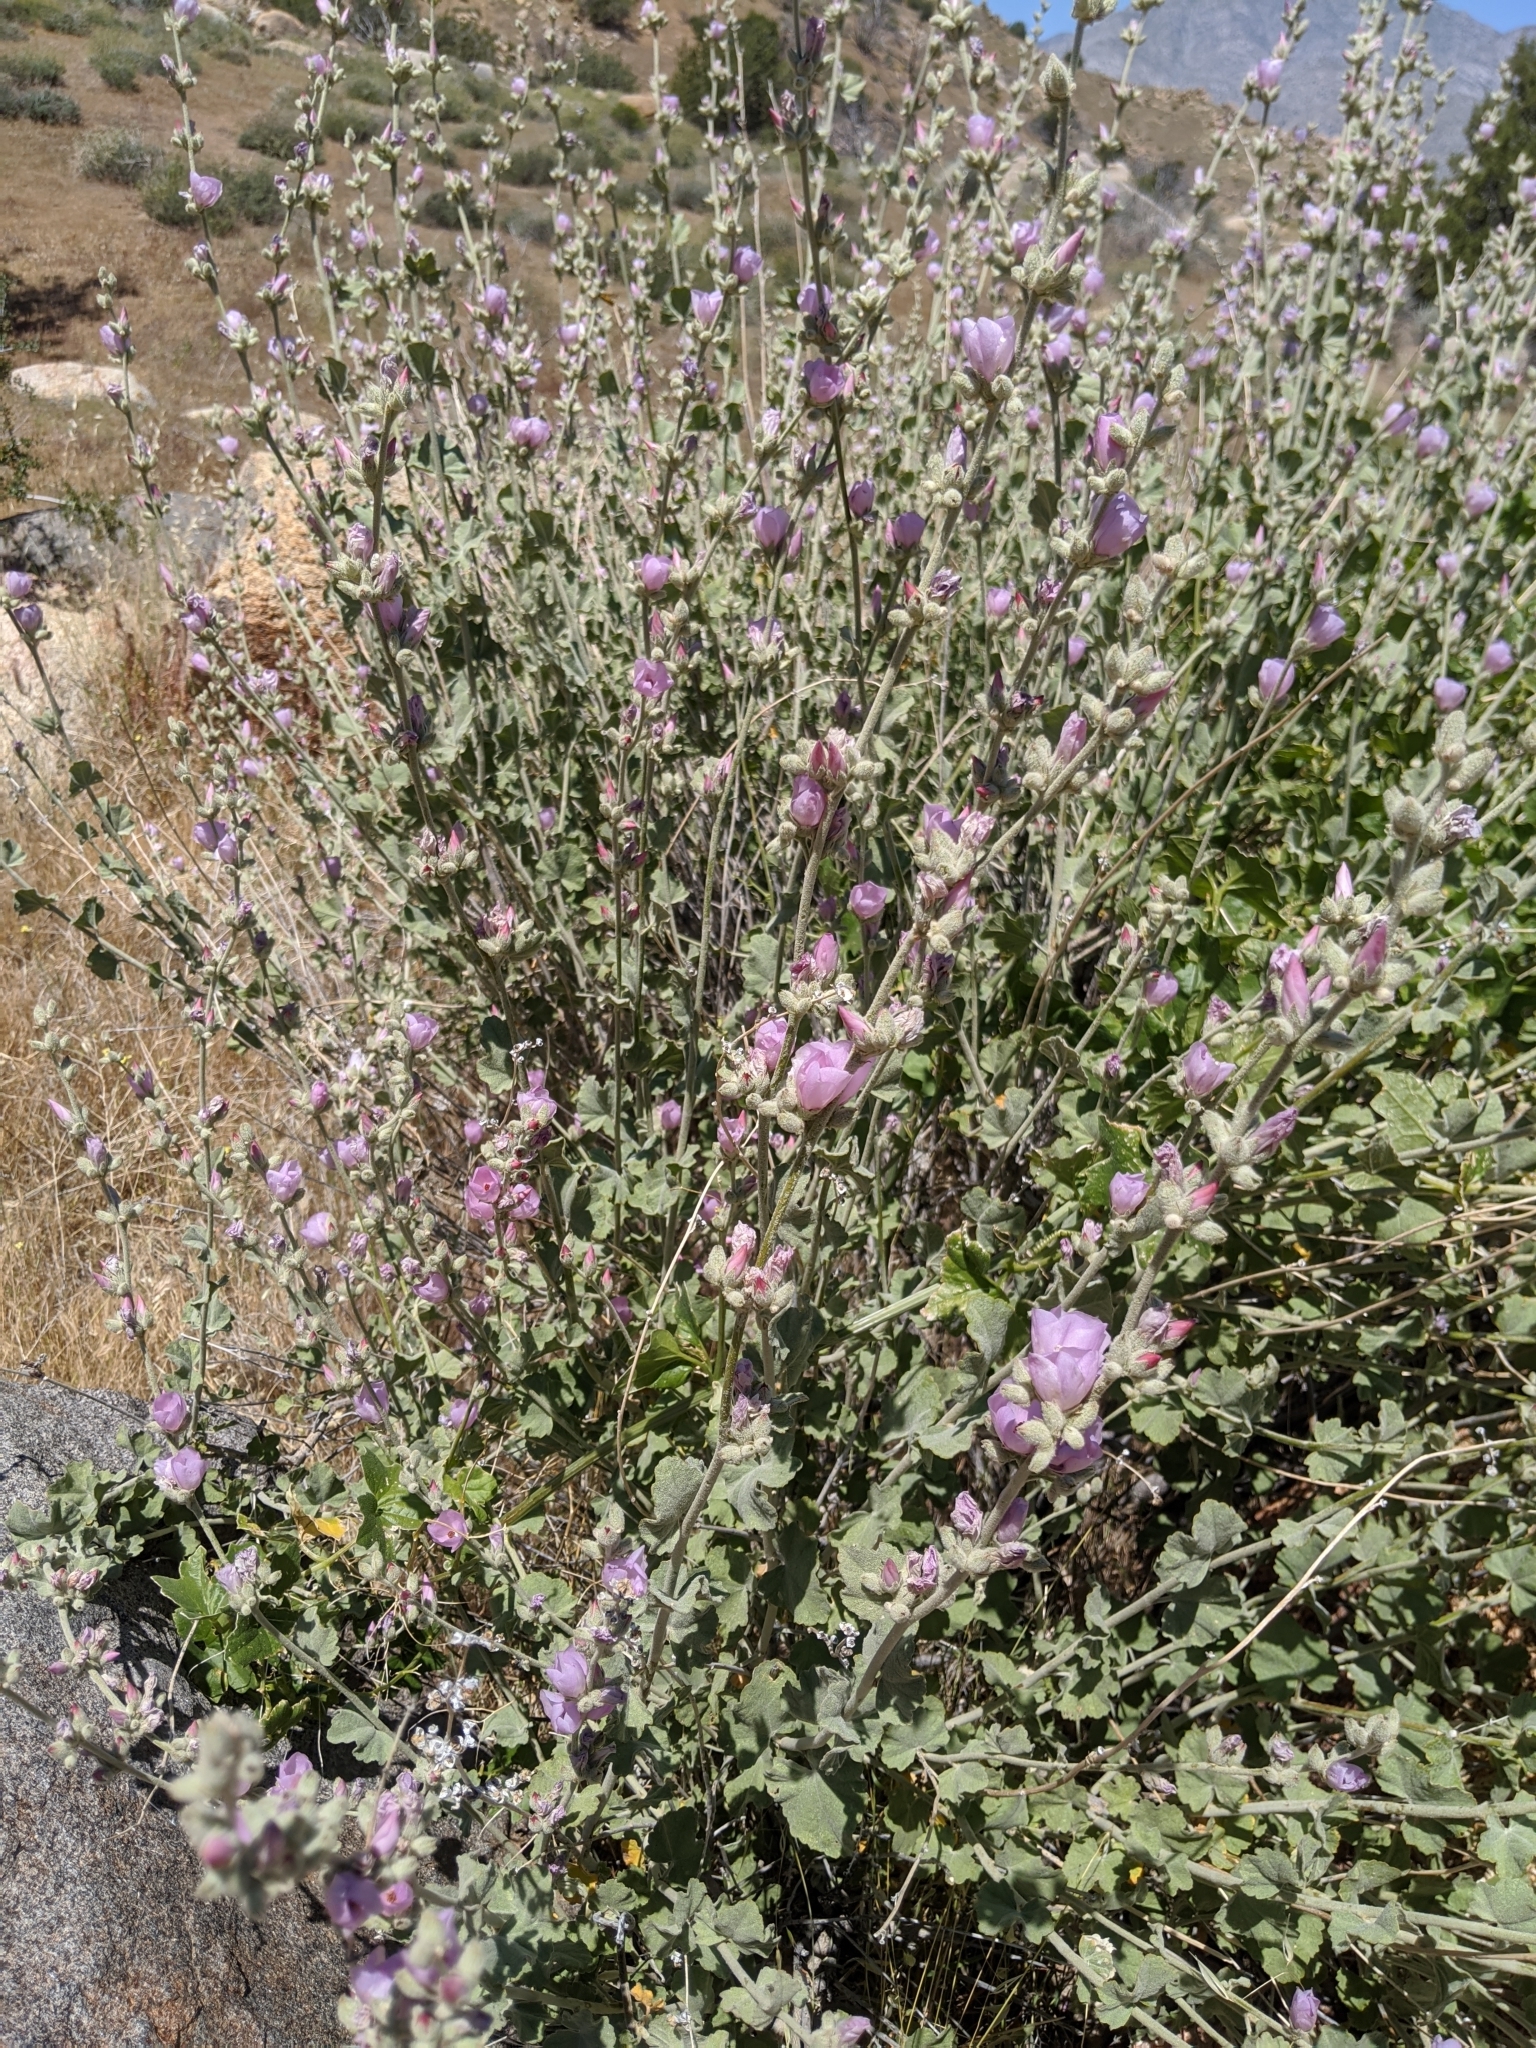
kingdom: Plantae
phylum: Tracheophyta
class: Magnoliopsida
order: Malvales
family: Malvaceae
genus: Malacothamnus
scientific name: Malacothamnus fremontii
